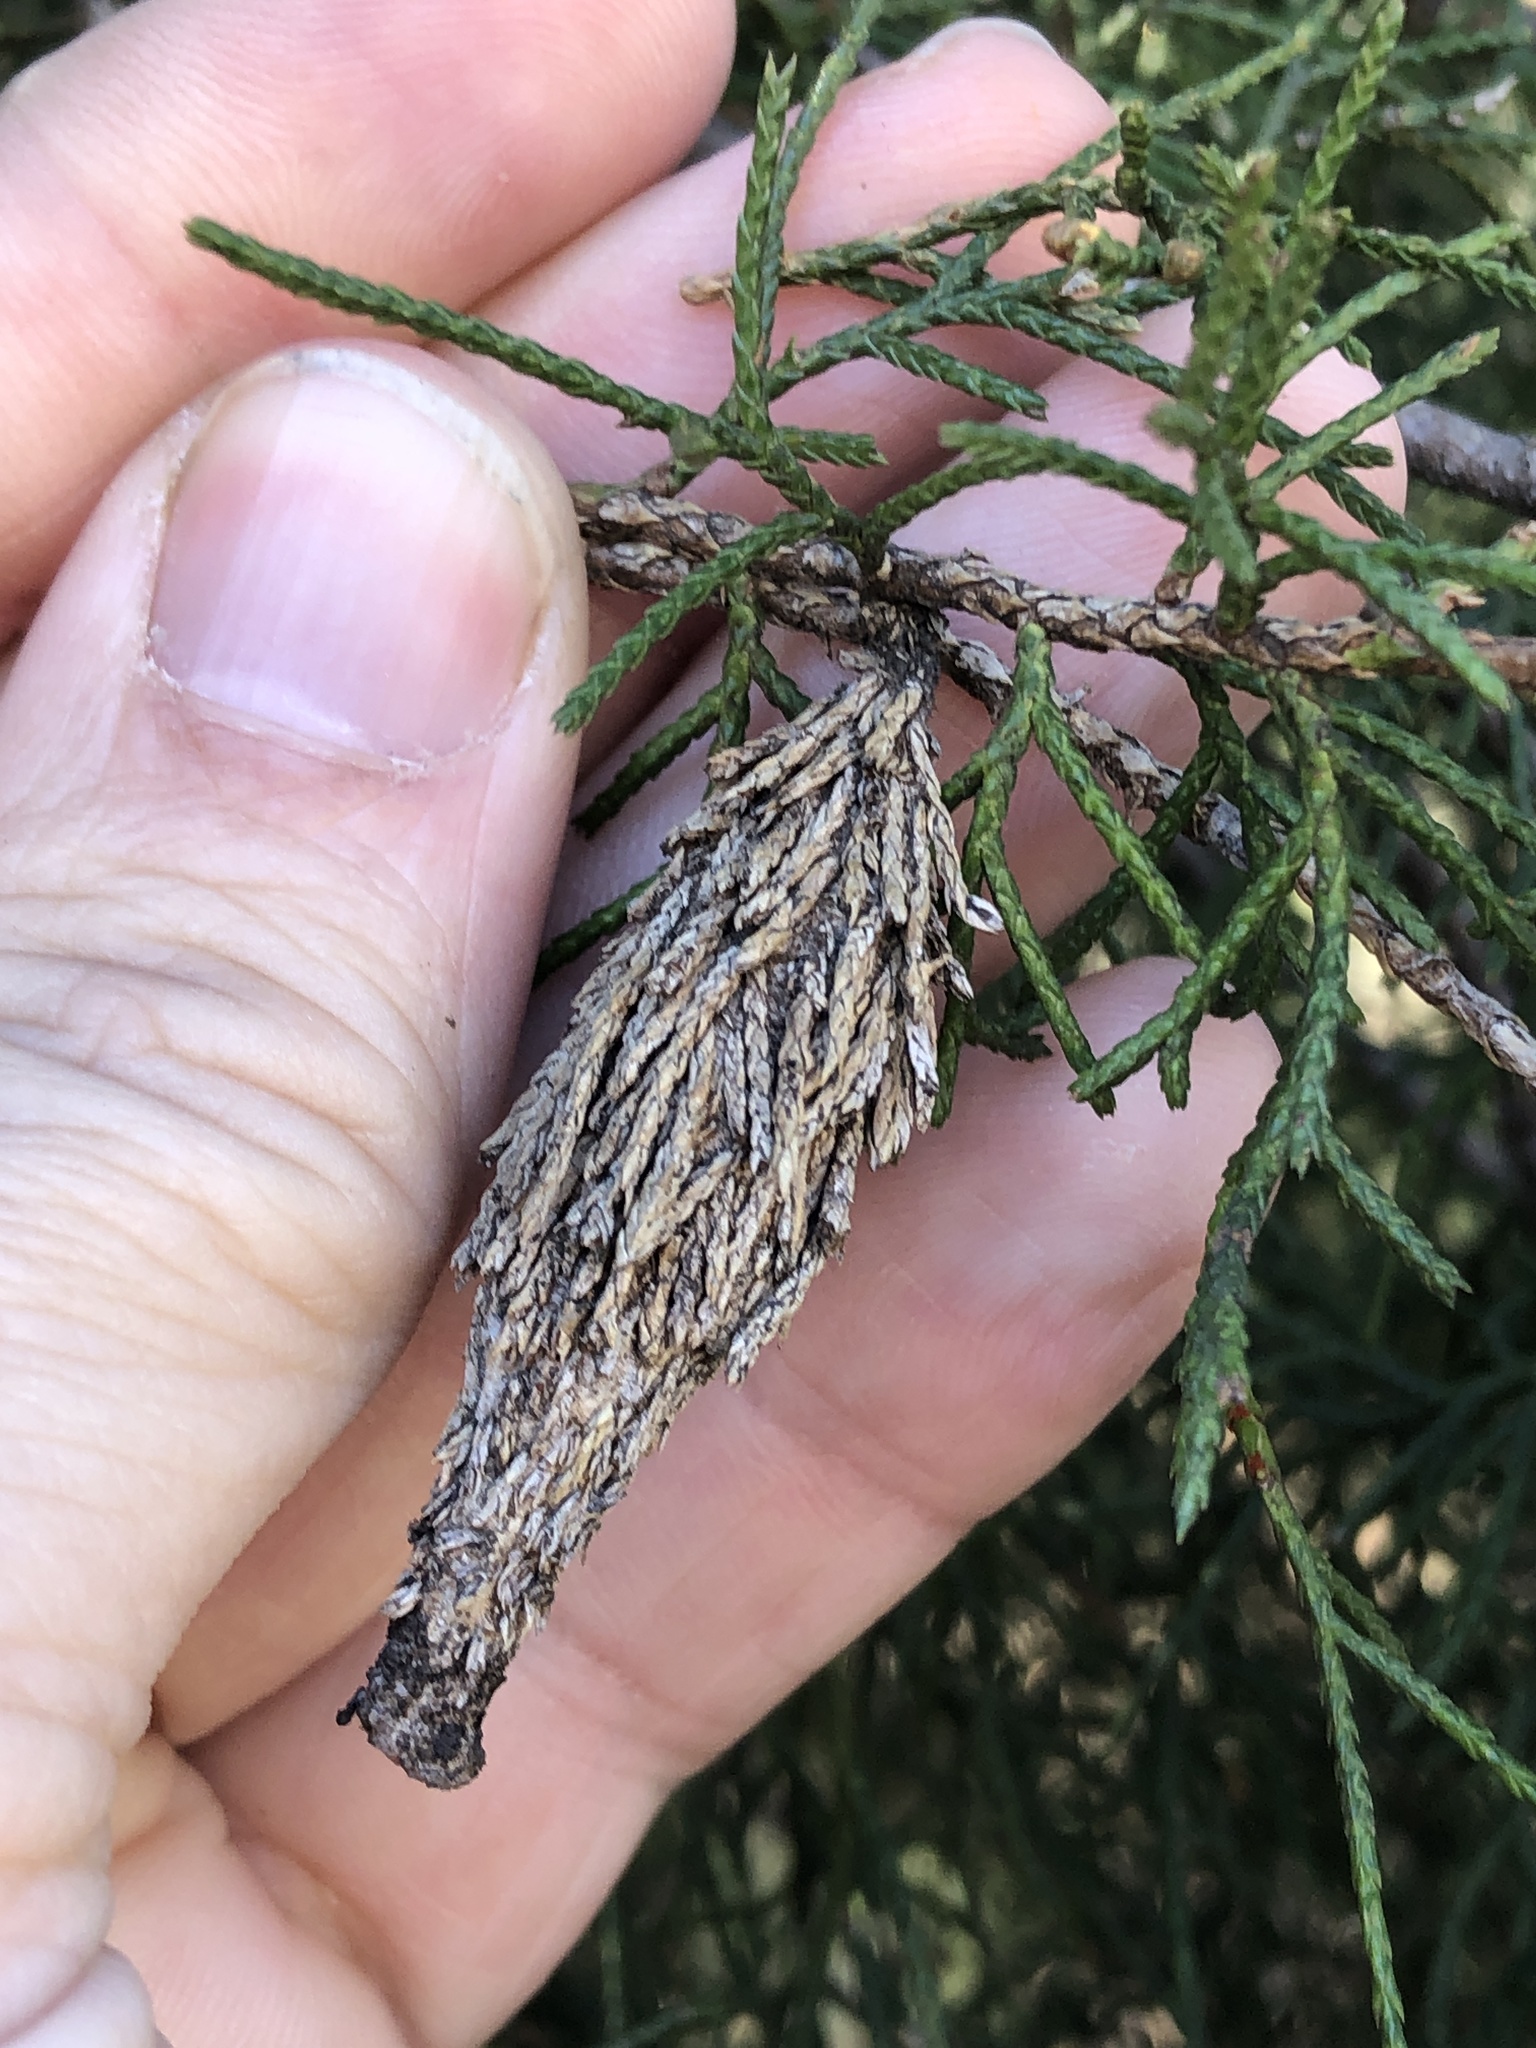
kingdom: Animalia
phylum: Arthropoda
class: Insecta
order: Lepidoptera
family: Psychidae
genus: Thyridopteryx
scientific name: Thyridopteryx ephemeraeformis
